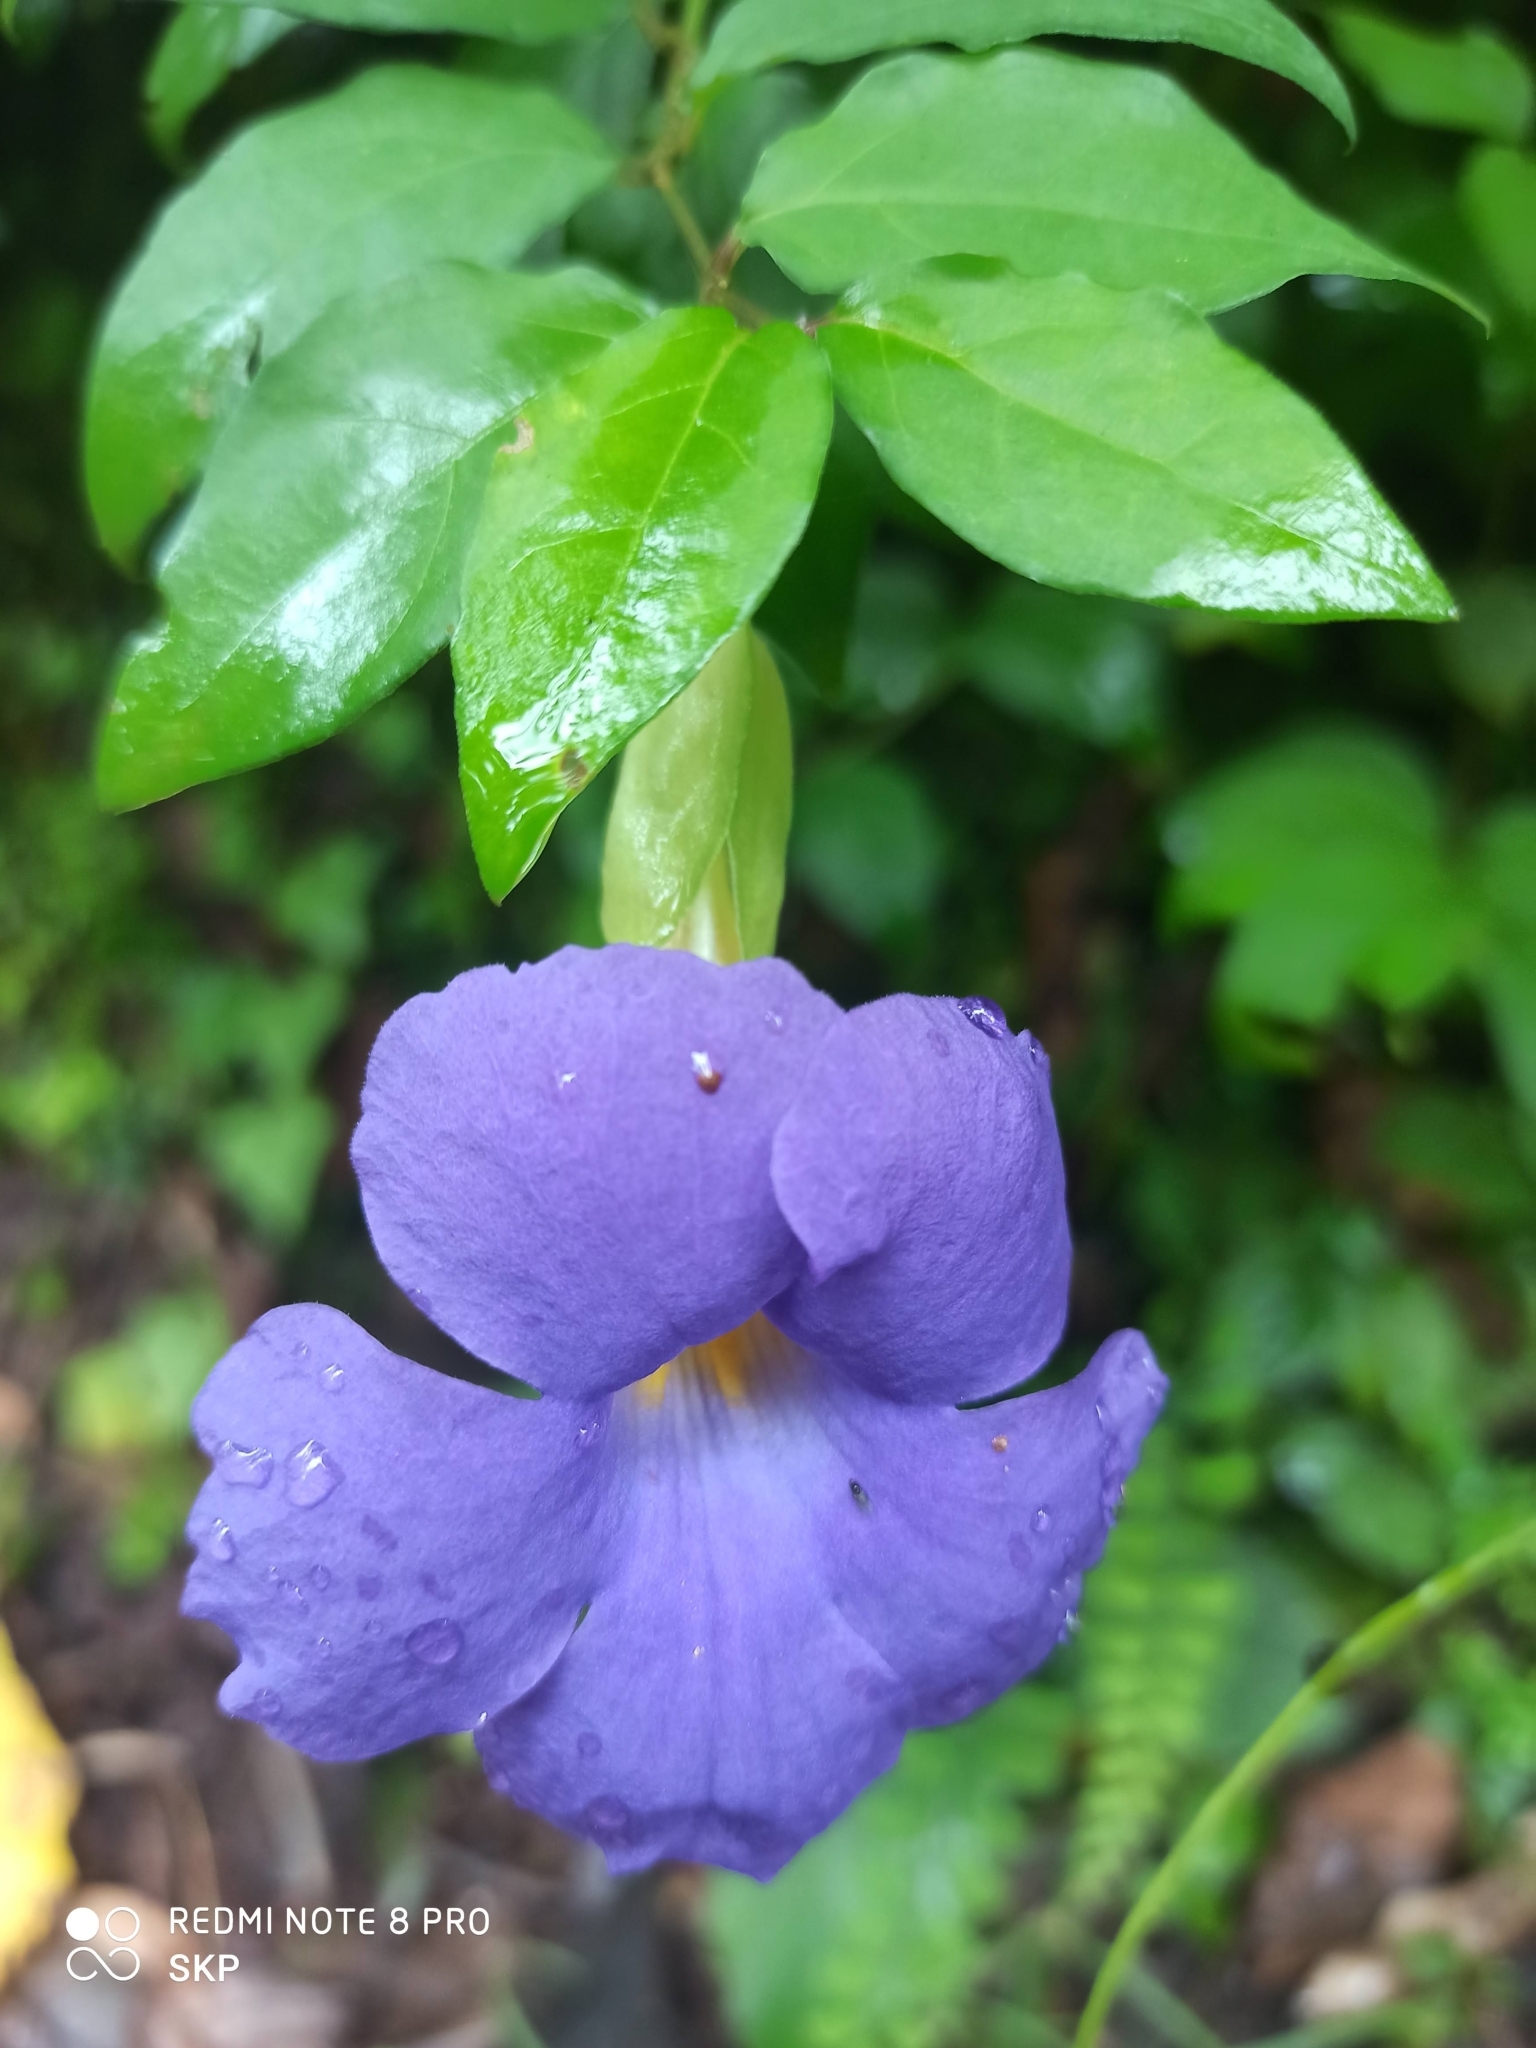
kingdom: Plantae
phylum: Tracheophyta
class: Magnoliopsida
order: Lamiales
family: Acanthaceae
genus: Thunbergia
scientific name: Thunbergia erecta
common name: Bush clockvine
